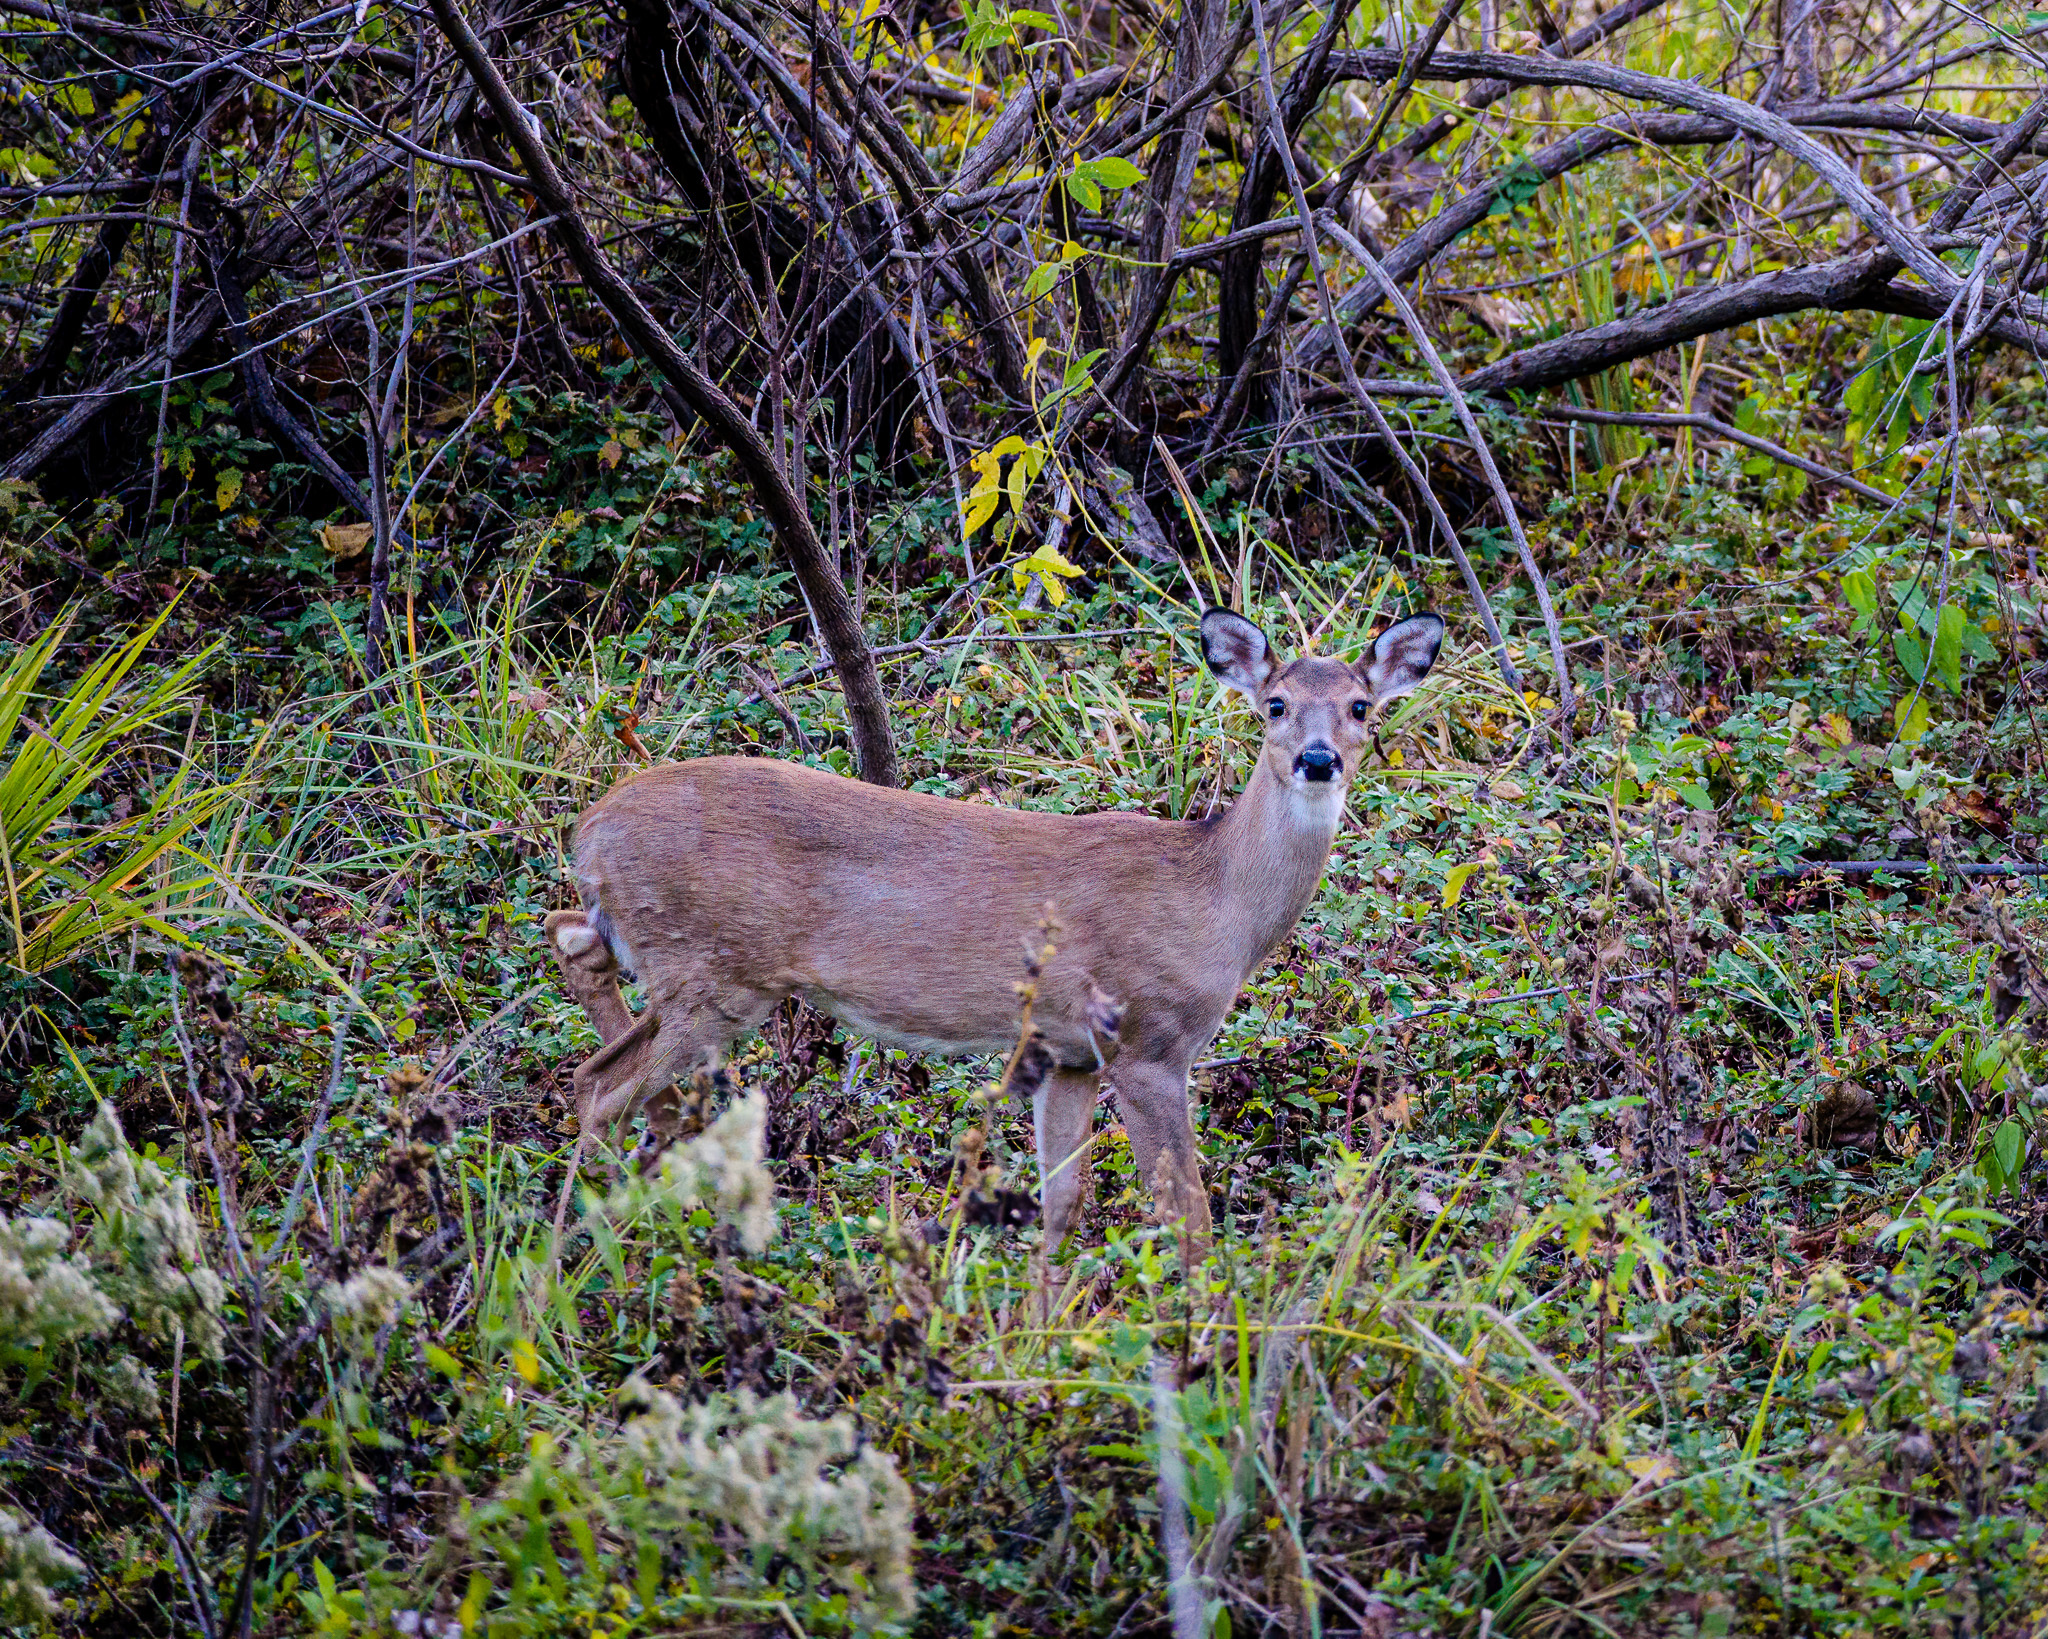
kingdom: Animalia
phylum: Chordata
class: Mammalia
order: Artiodactyla
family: Cervidae
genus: Odocoileus
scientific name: Odocoileus virginianus
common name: White-tailed deer
